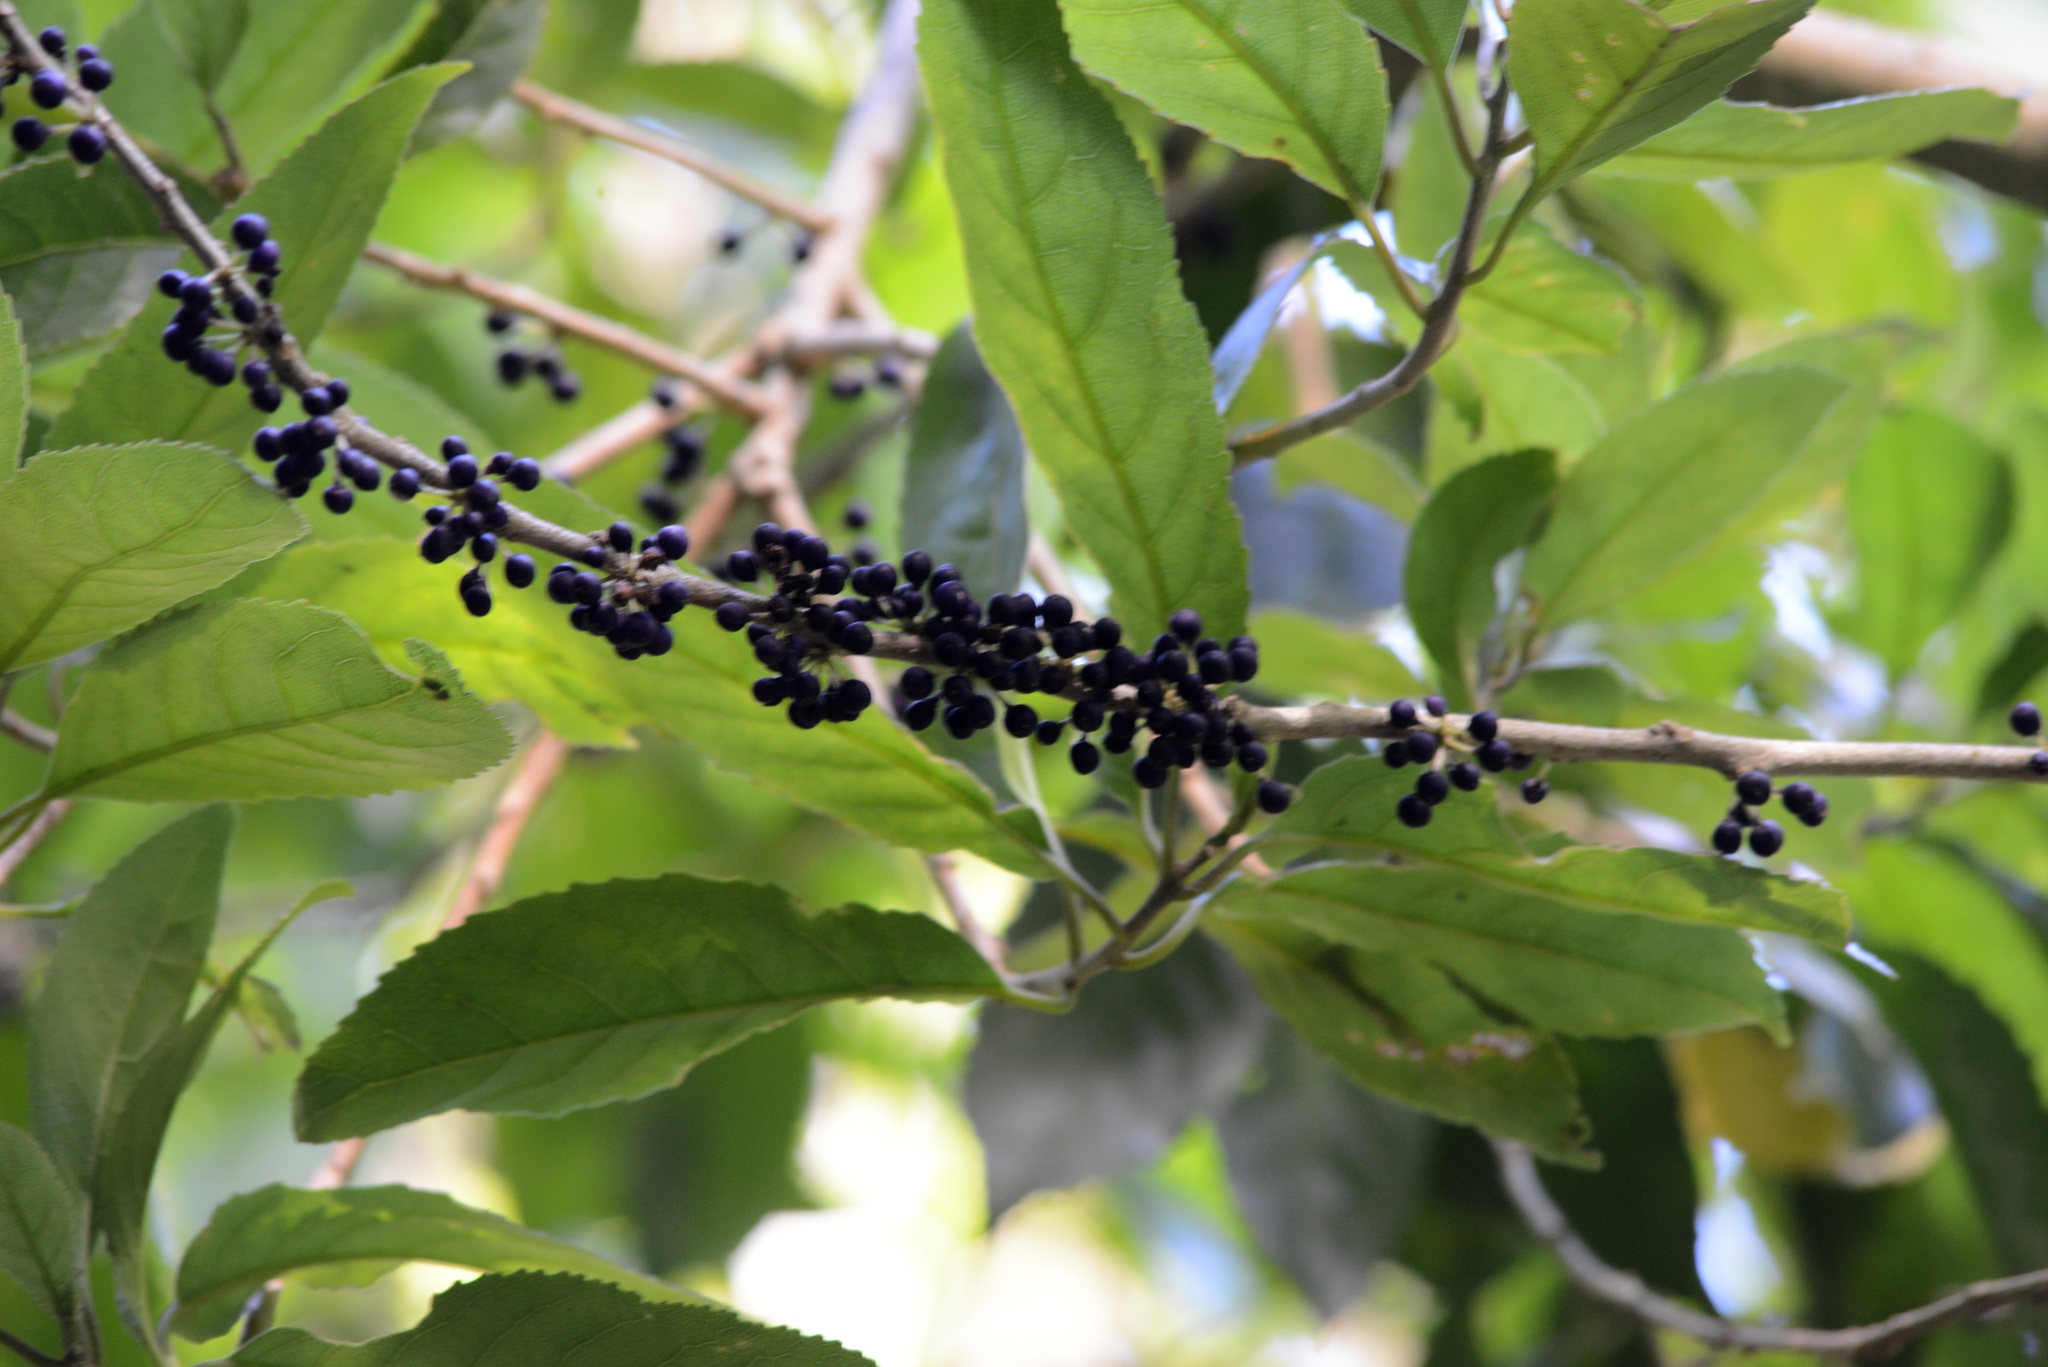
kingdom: Plantae
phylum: Tracheophyta
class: Magnoliopsida
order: Malpighiales
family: Violaceae
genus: Melicytus
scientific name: Melicytus ramiflorus
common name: Mahoe
